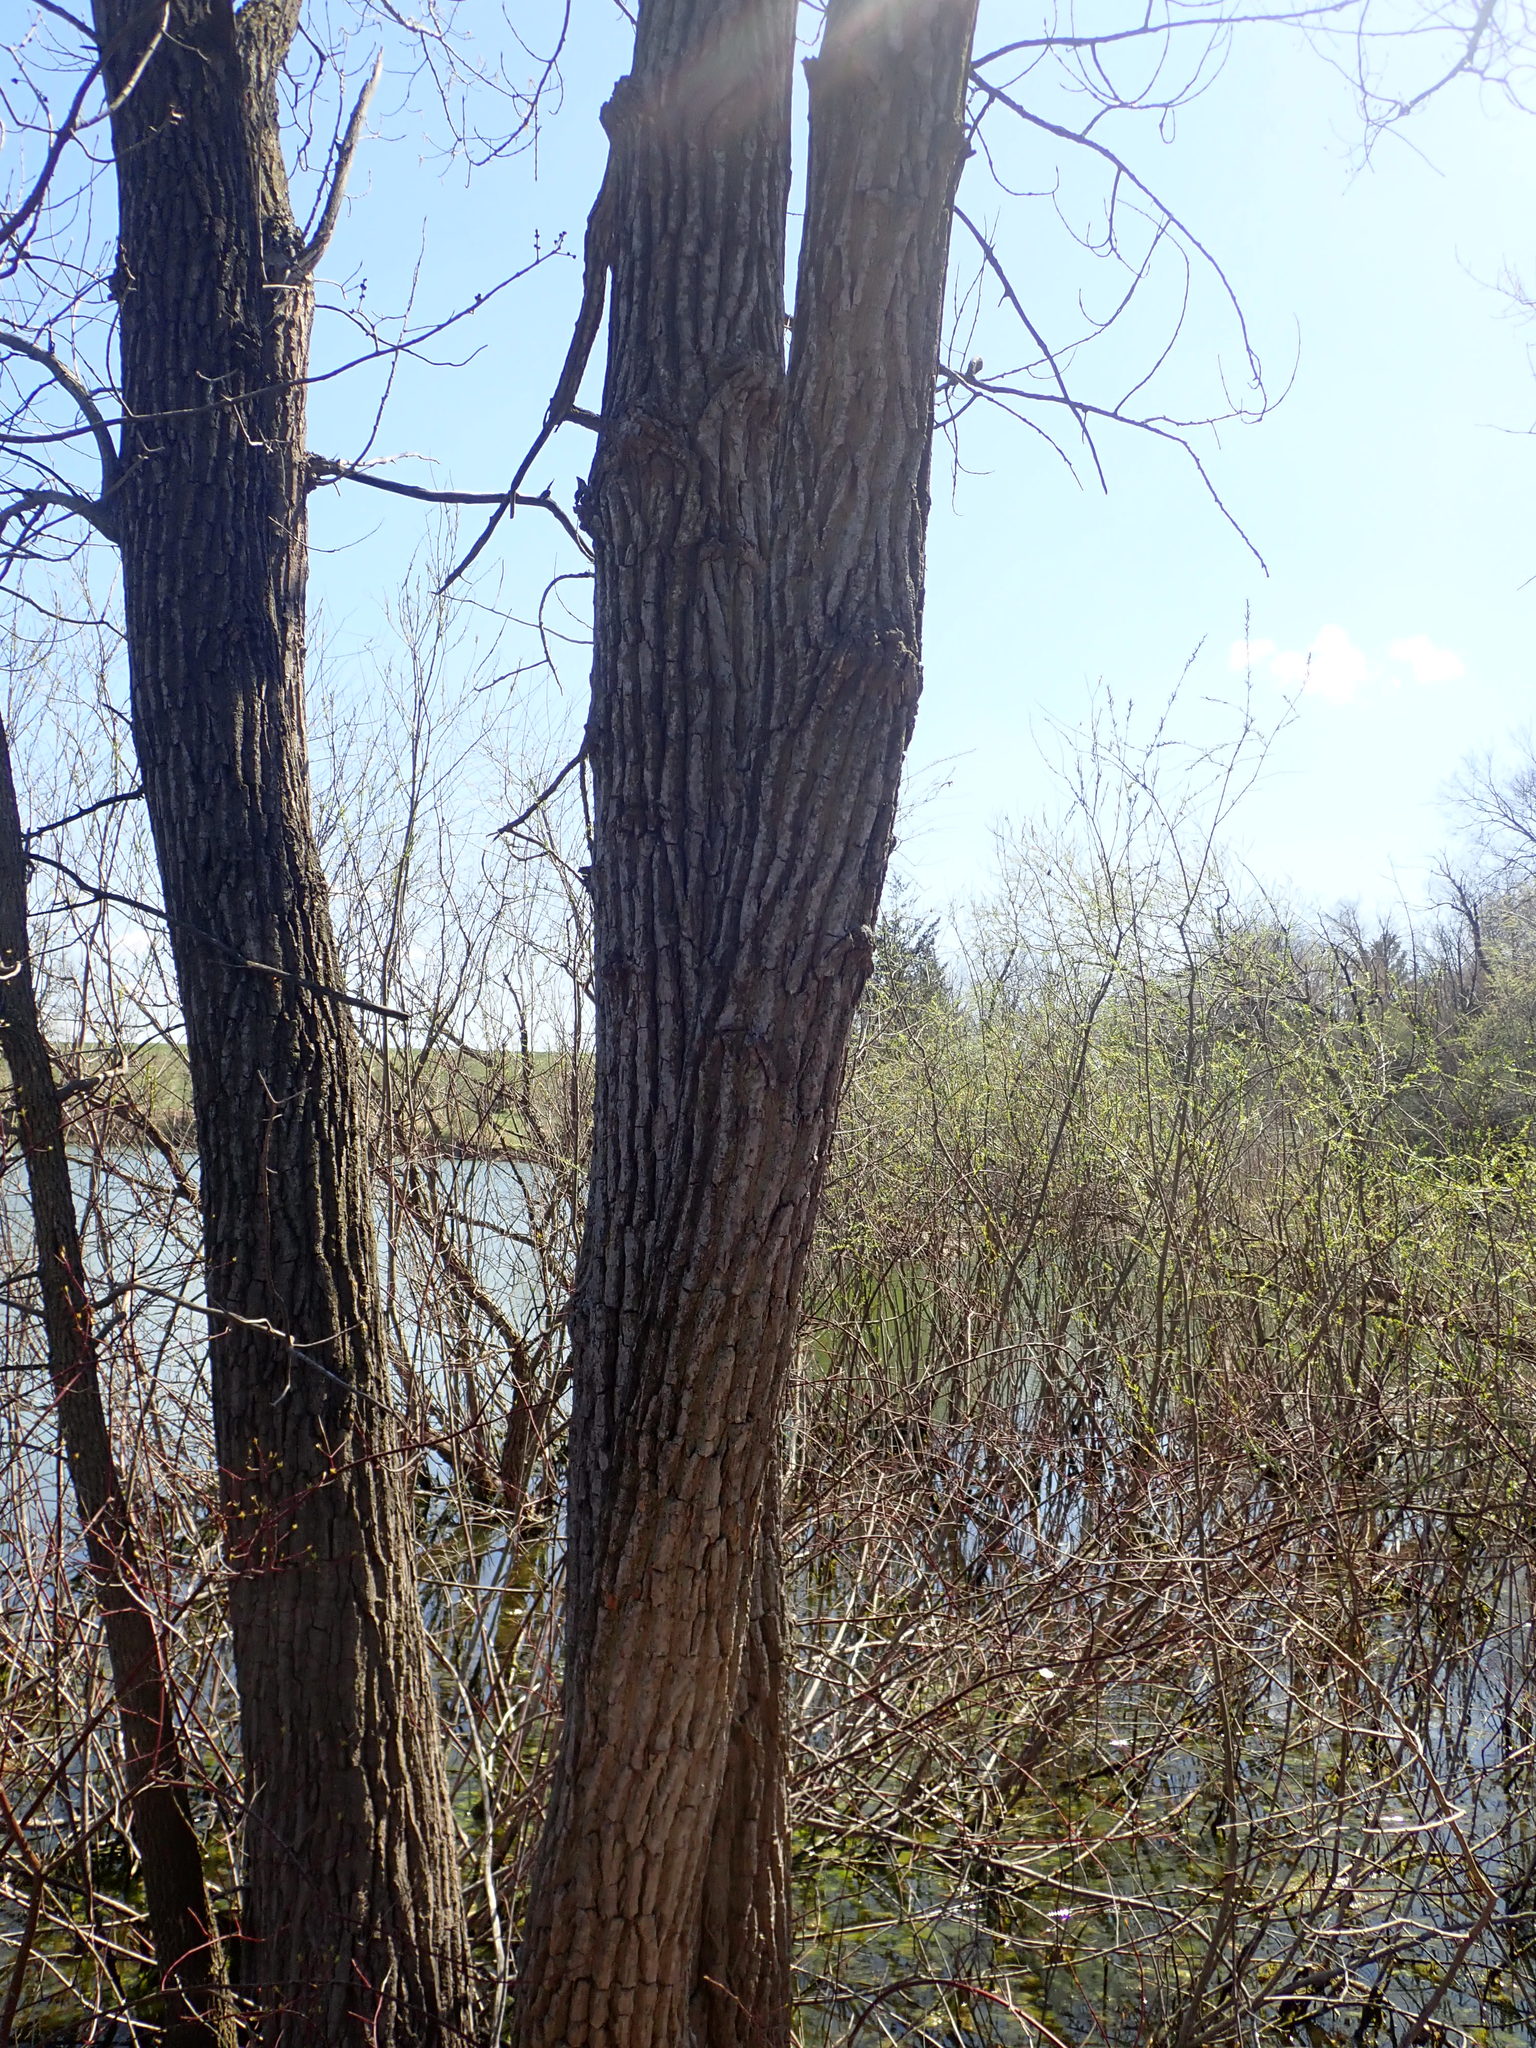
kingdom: Plantae
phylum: Tracheophyta
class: Magnoliopsida
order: Malpighiales
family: Salicaceae
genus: Populus
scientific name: Populus deltoides
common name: Eastern cottonwood
